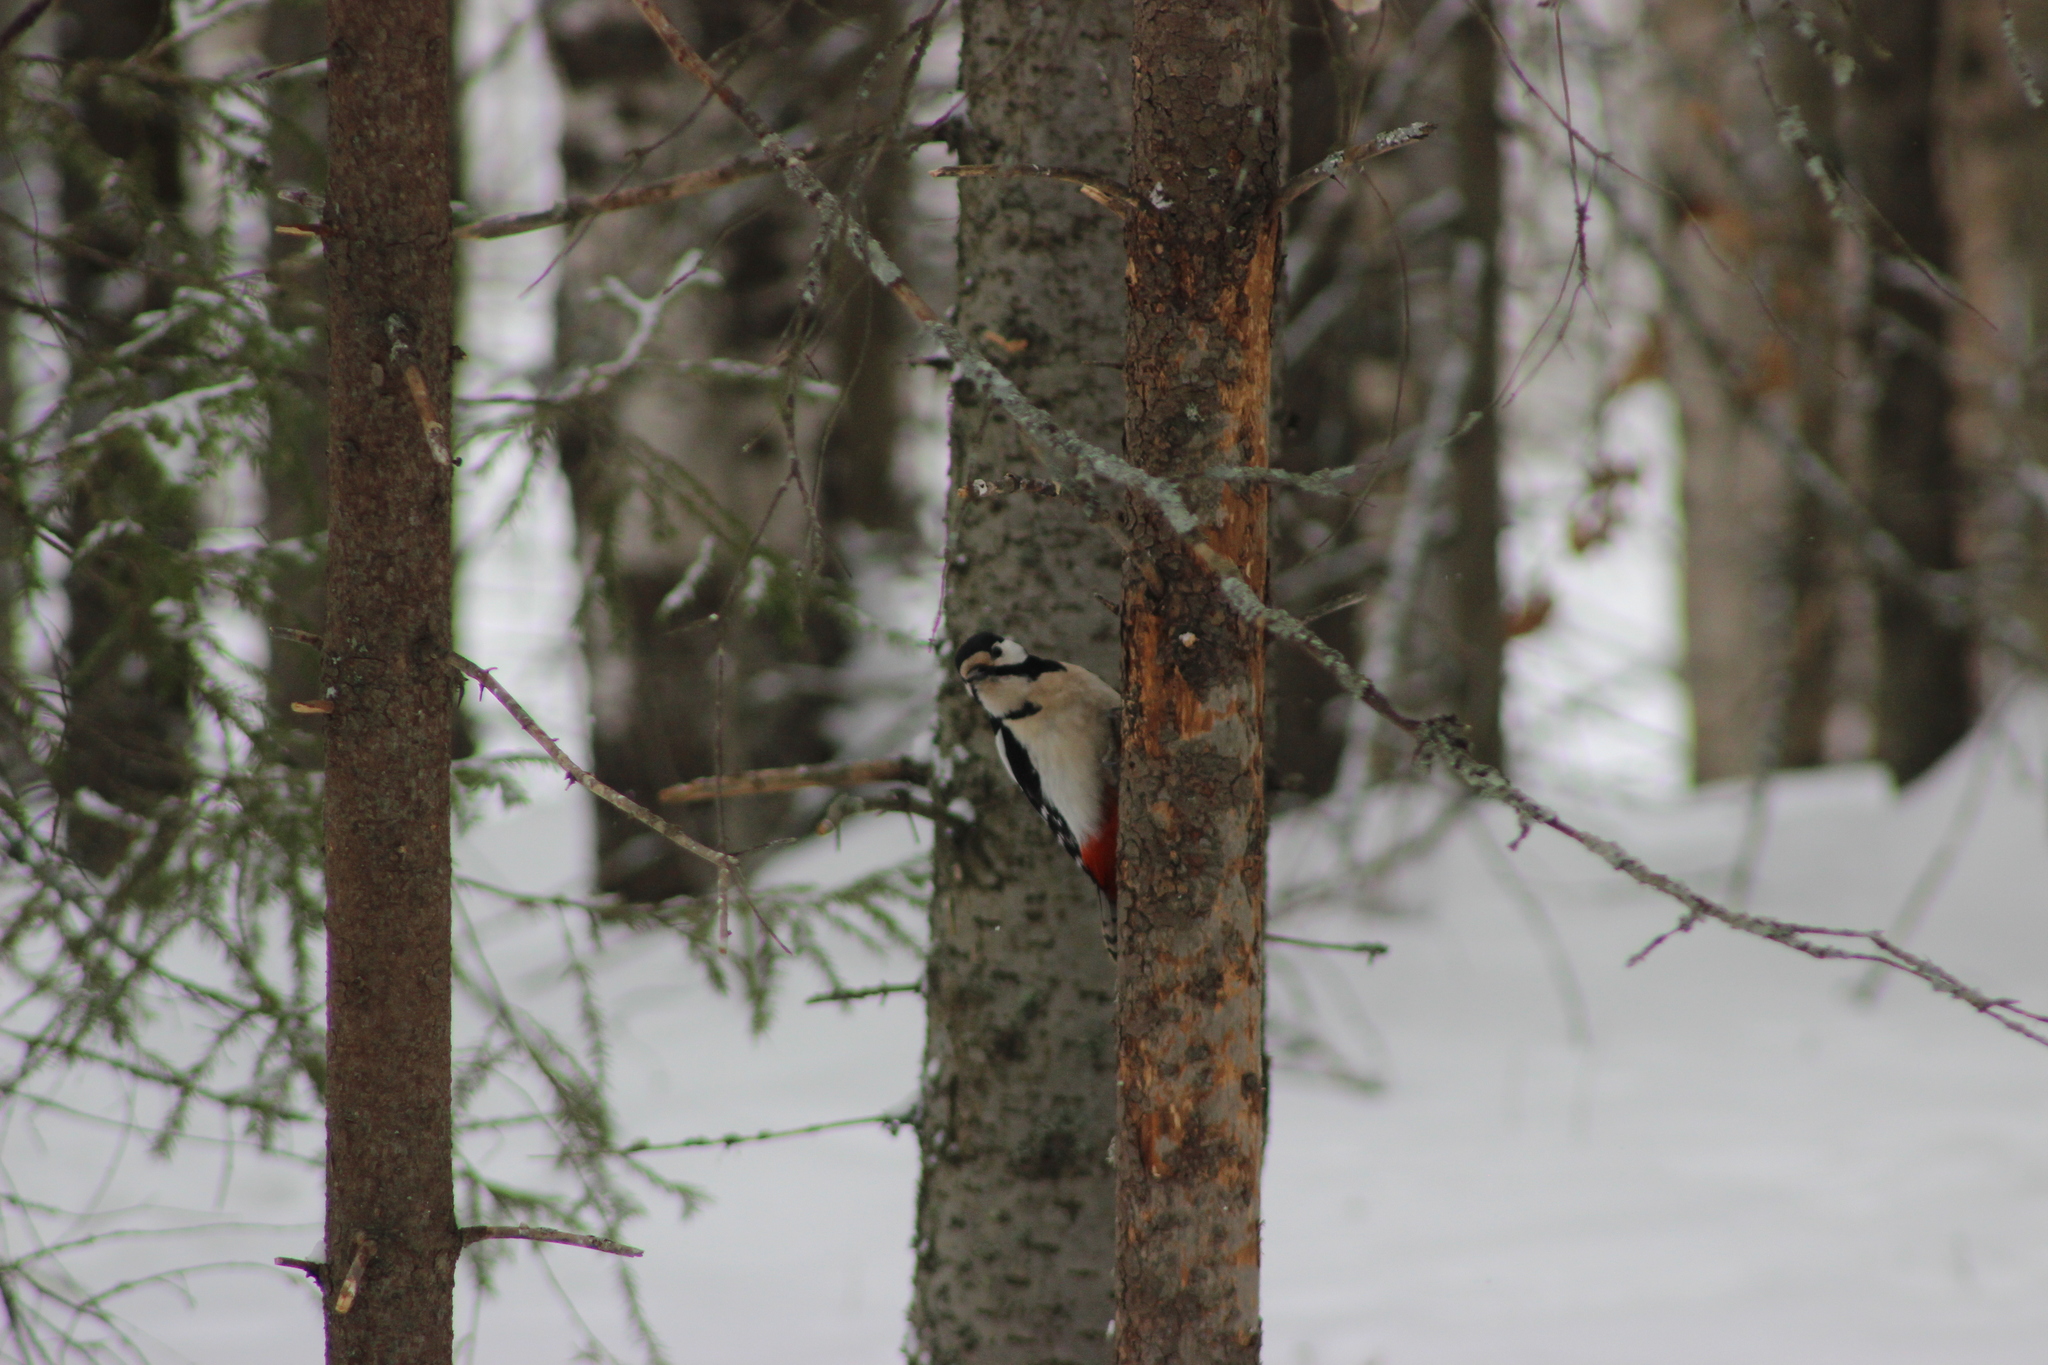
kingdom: Animalia
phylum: Chordata
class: Aves
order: Piciformes
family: Picidae
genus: Dendrocopos
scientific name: Dendrocopos major
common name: Great spotted woodpecker
